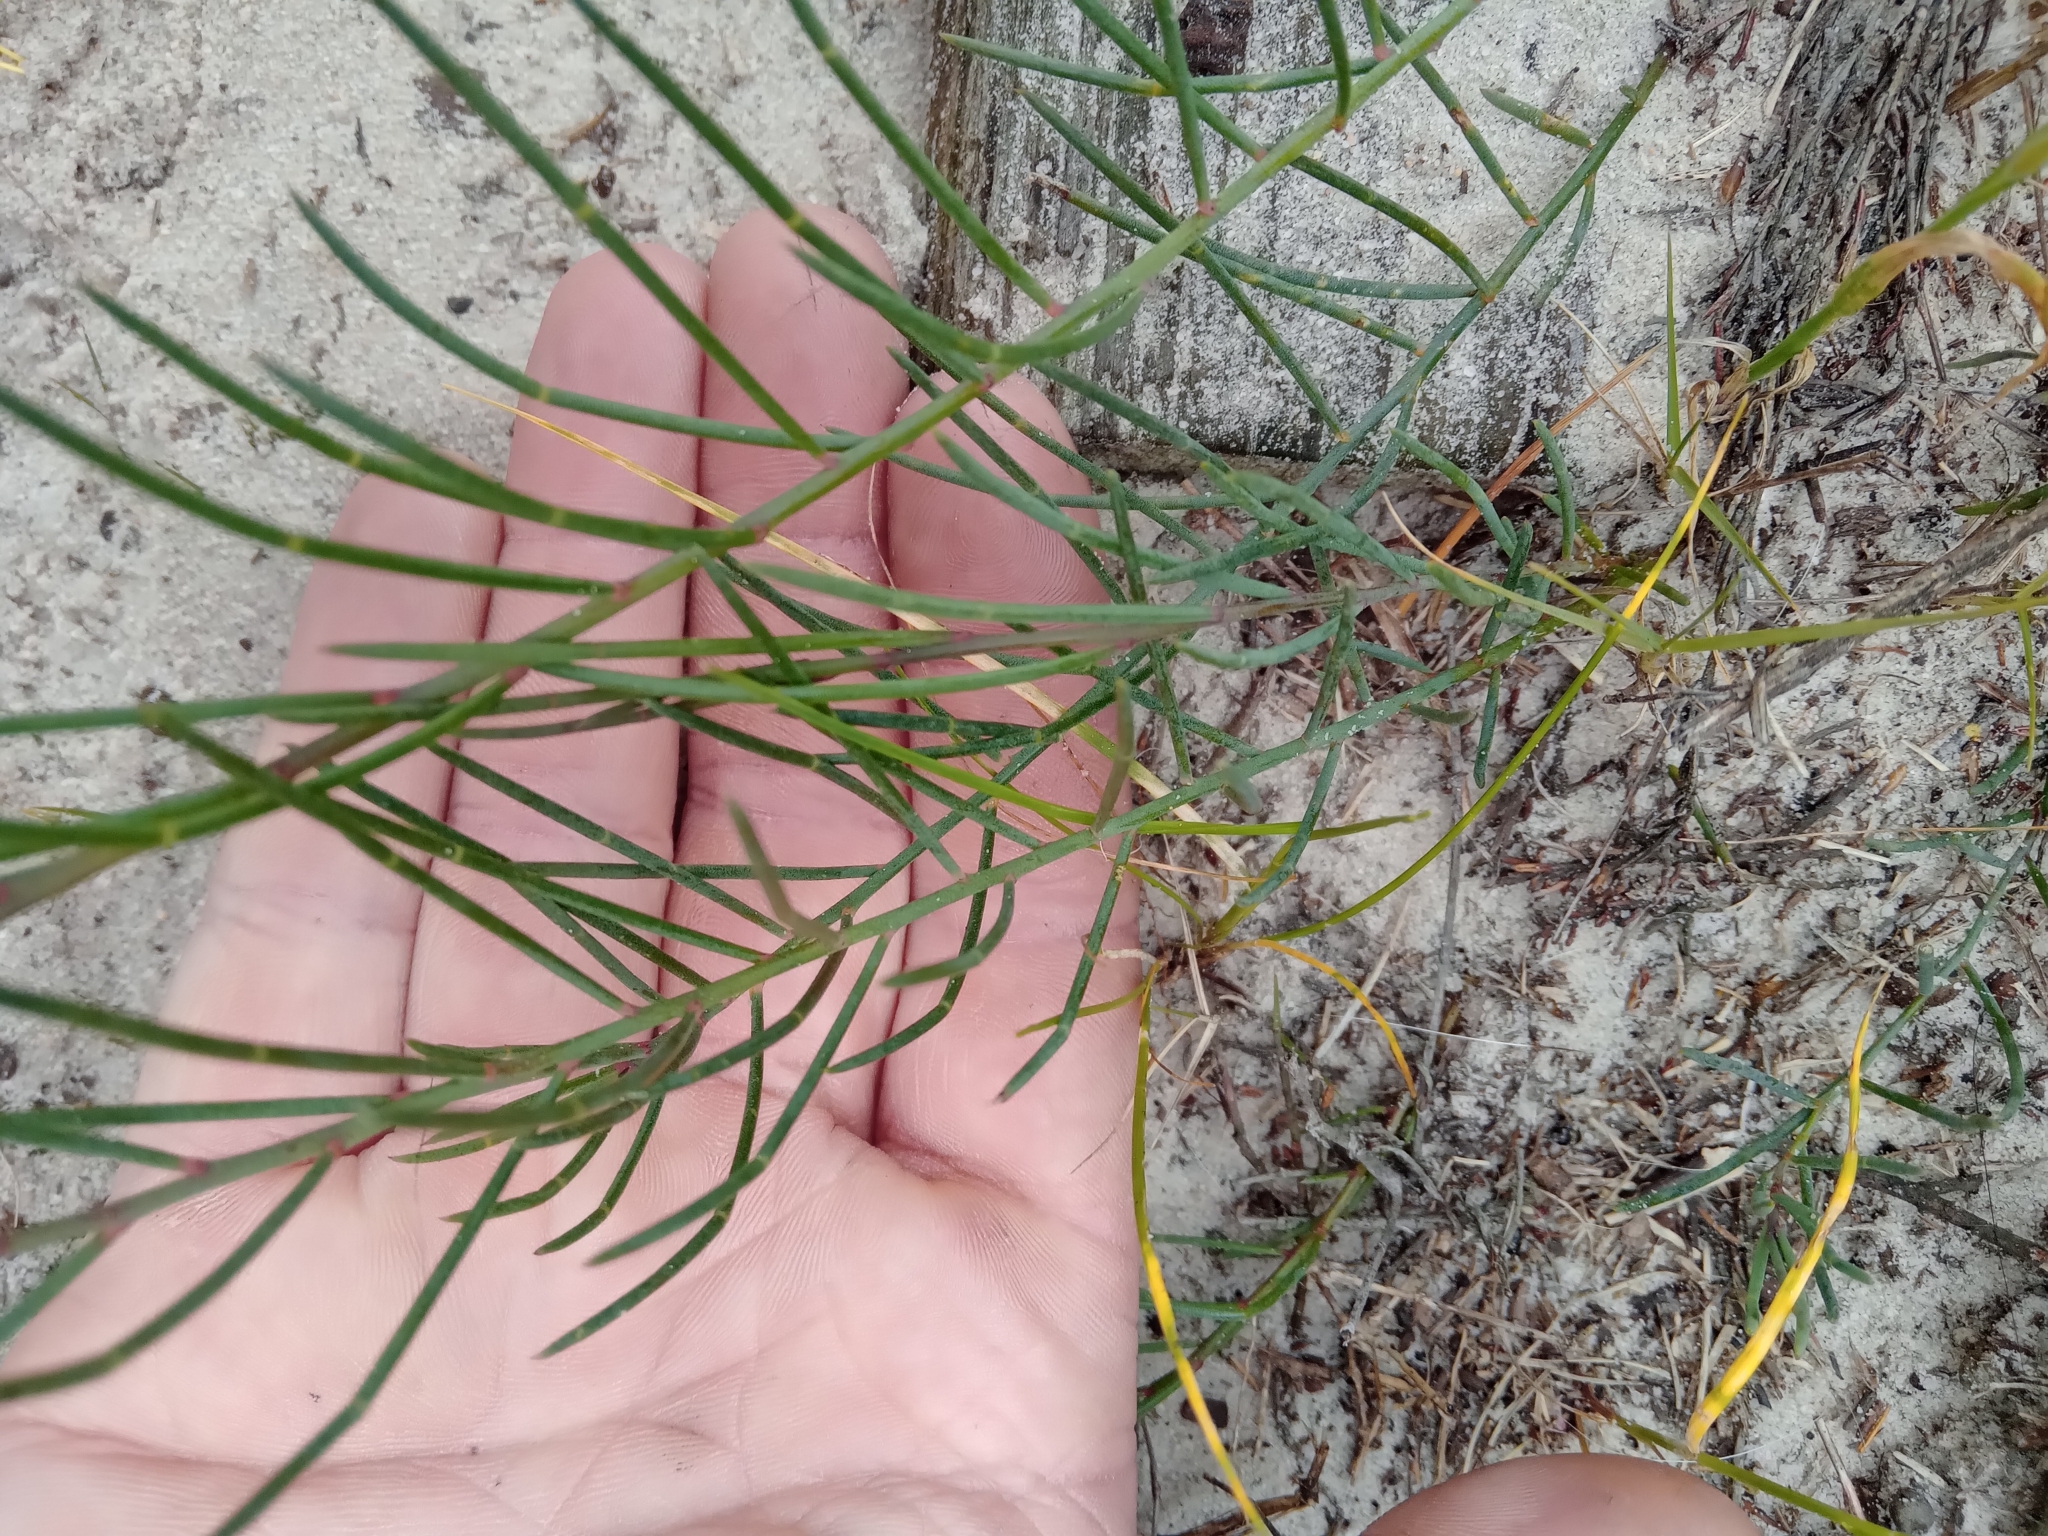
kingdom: Plantae
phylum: Tracheophyta
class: Magnoliopsida
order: Fabales
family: Fabaceae
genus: Lebeckia
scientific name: Lebeckia contaminata
